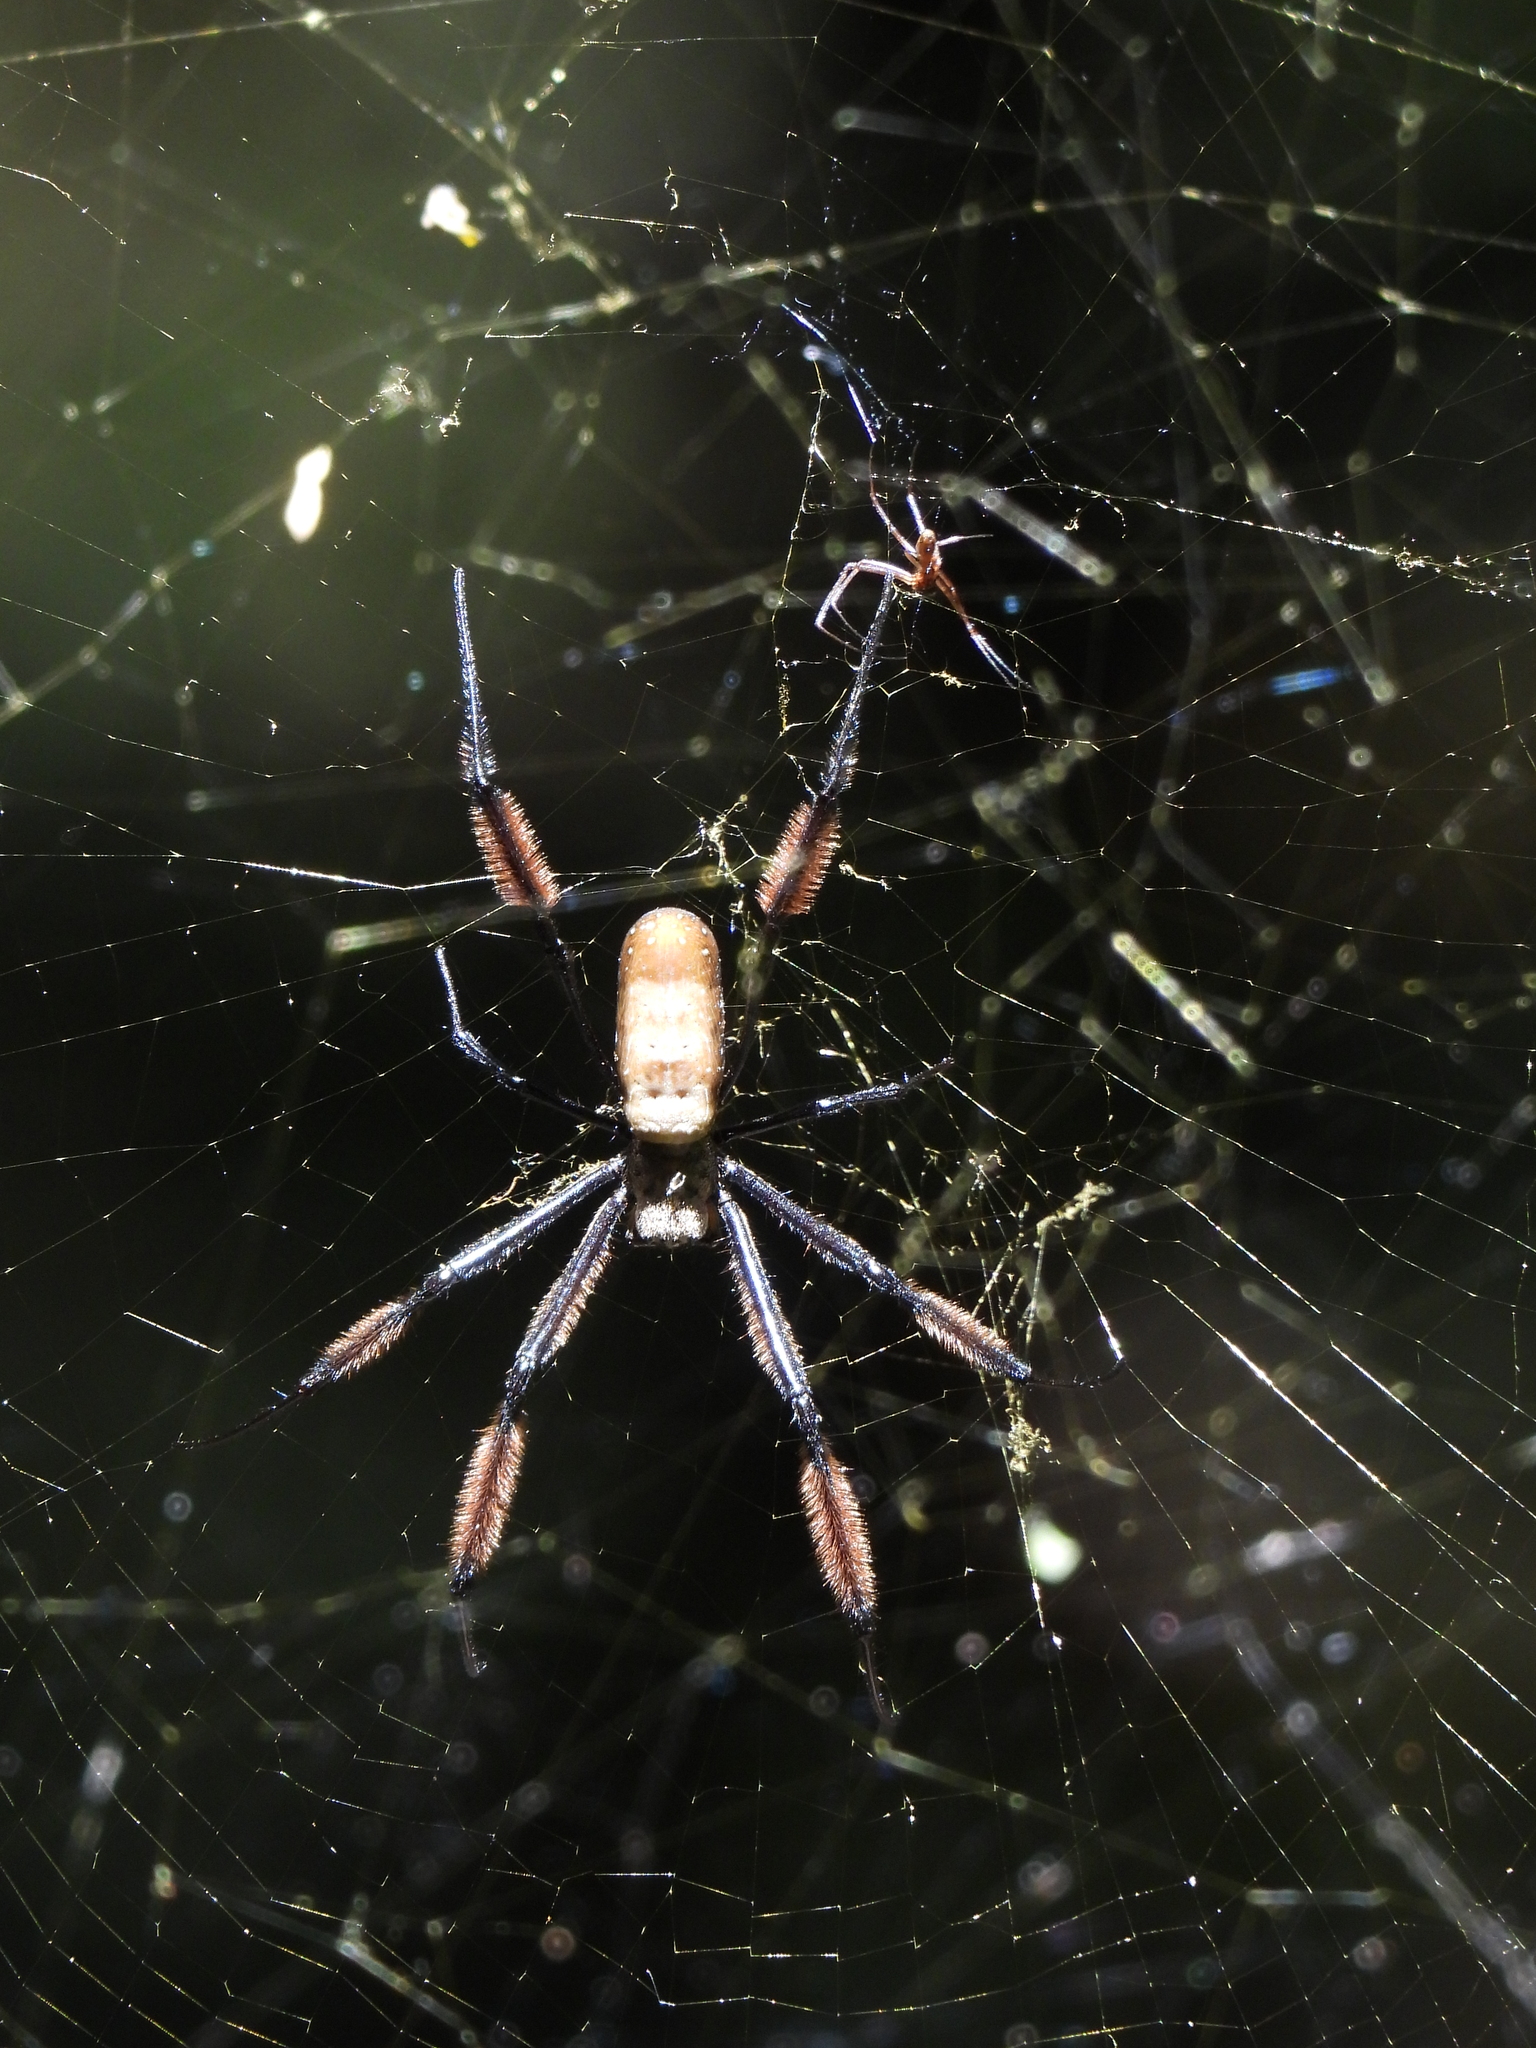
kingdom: Animalia
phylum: Arthropoda
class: Arachnida
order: Araneae
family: Araneidae
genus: Trichonephila
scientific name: Trichonephila fenestrata
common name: Hairy golden orb weaver
